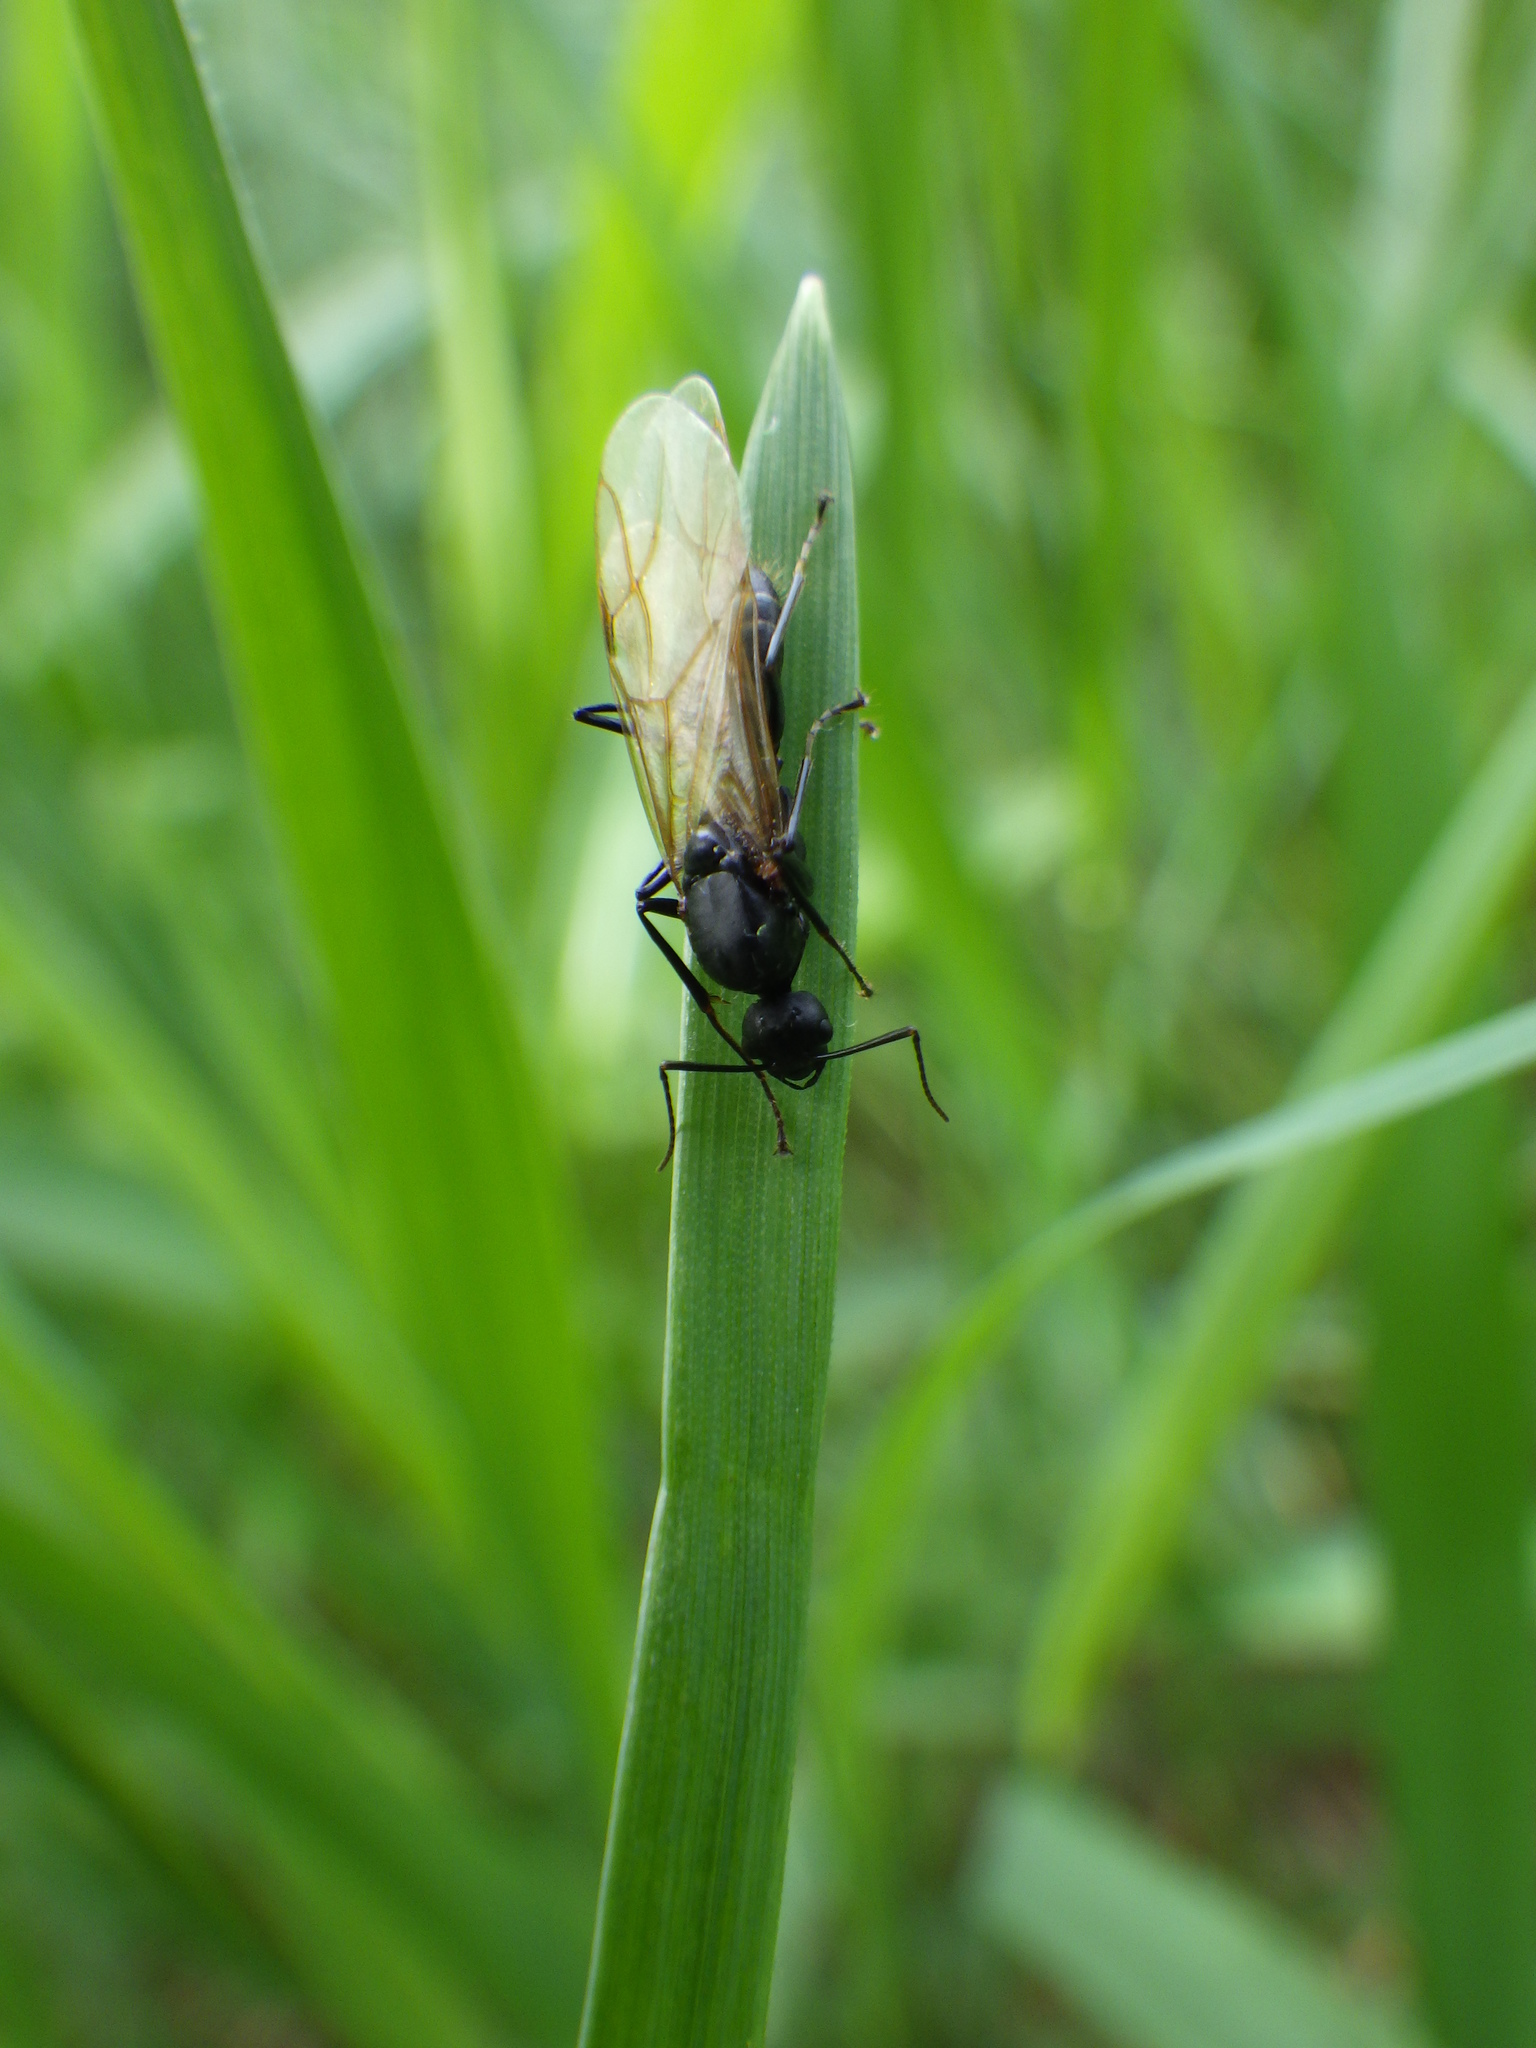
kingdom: Animalia
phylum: Arthropoda
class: Insecta
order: Hymenoptera
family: Formicidae
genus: Camponotus
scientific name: Camponotus pennsylvanicus
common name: Black carpenter ant
